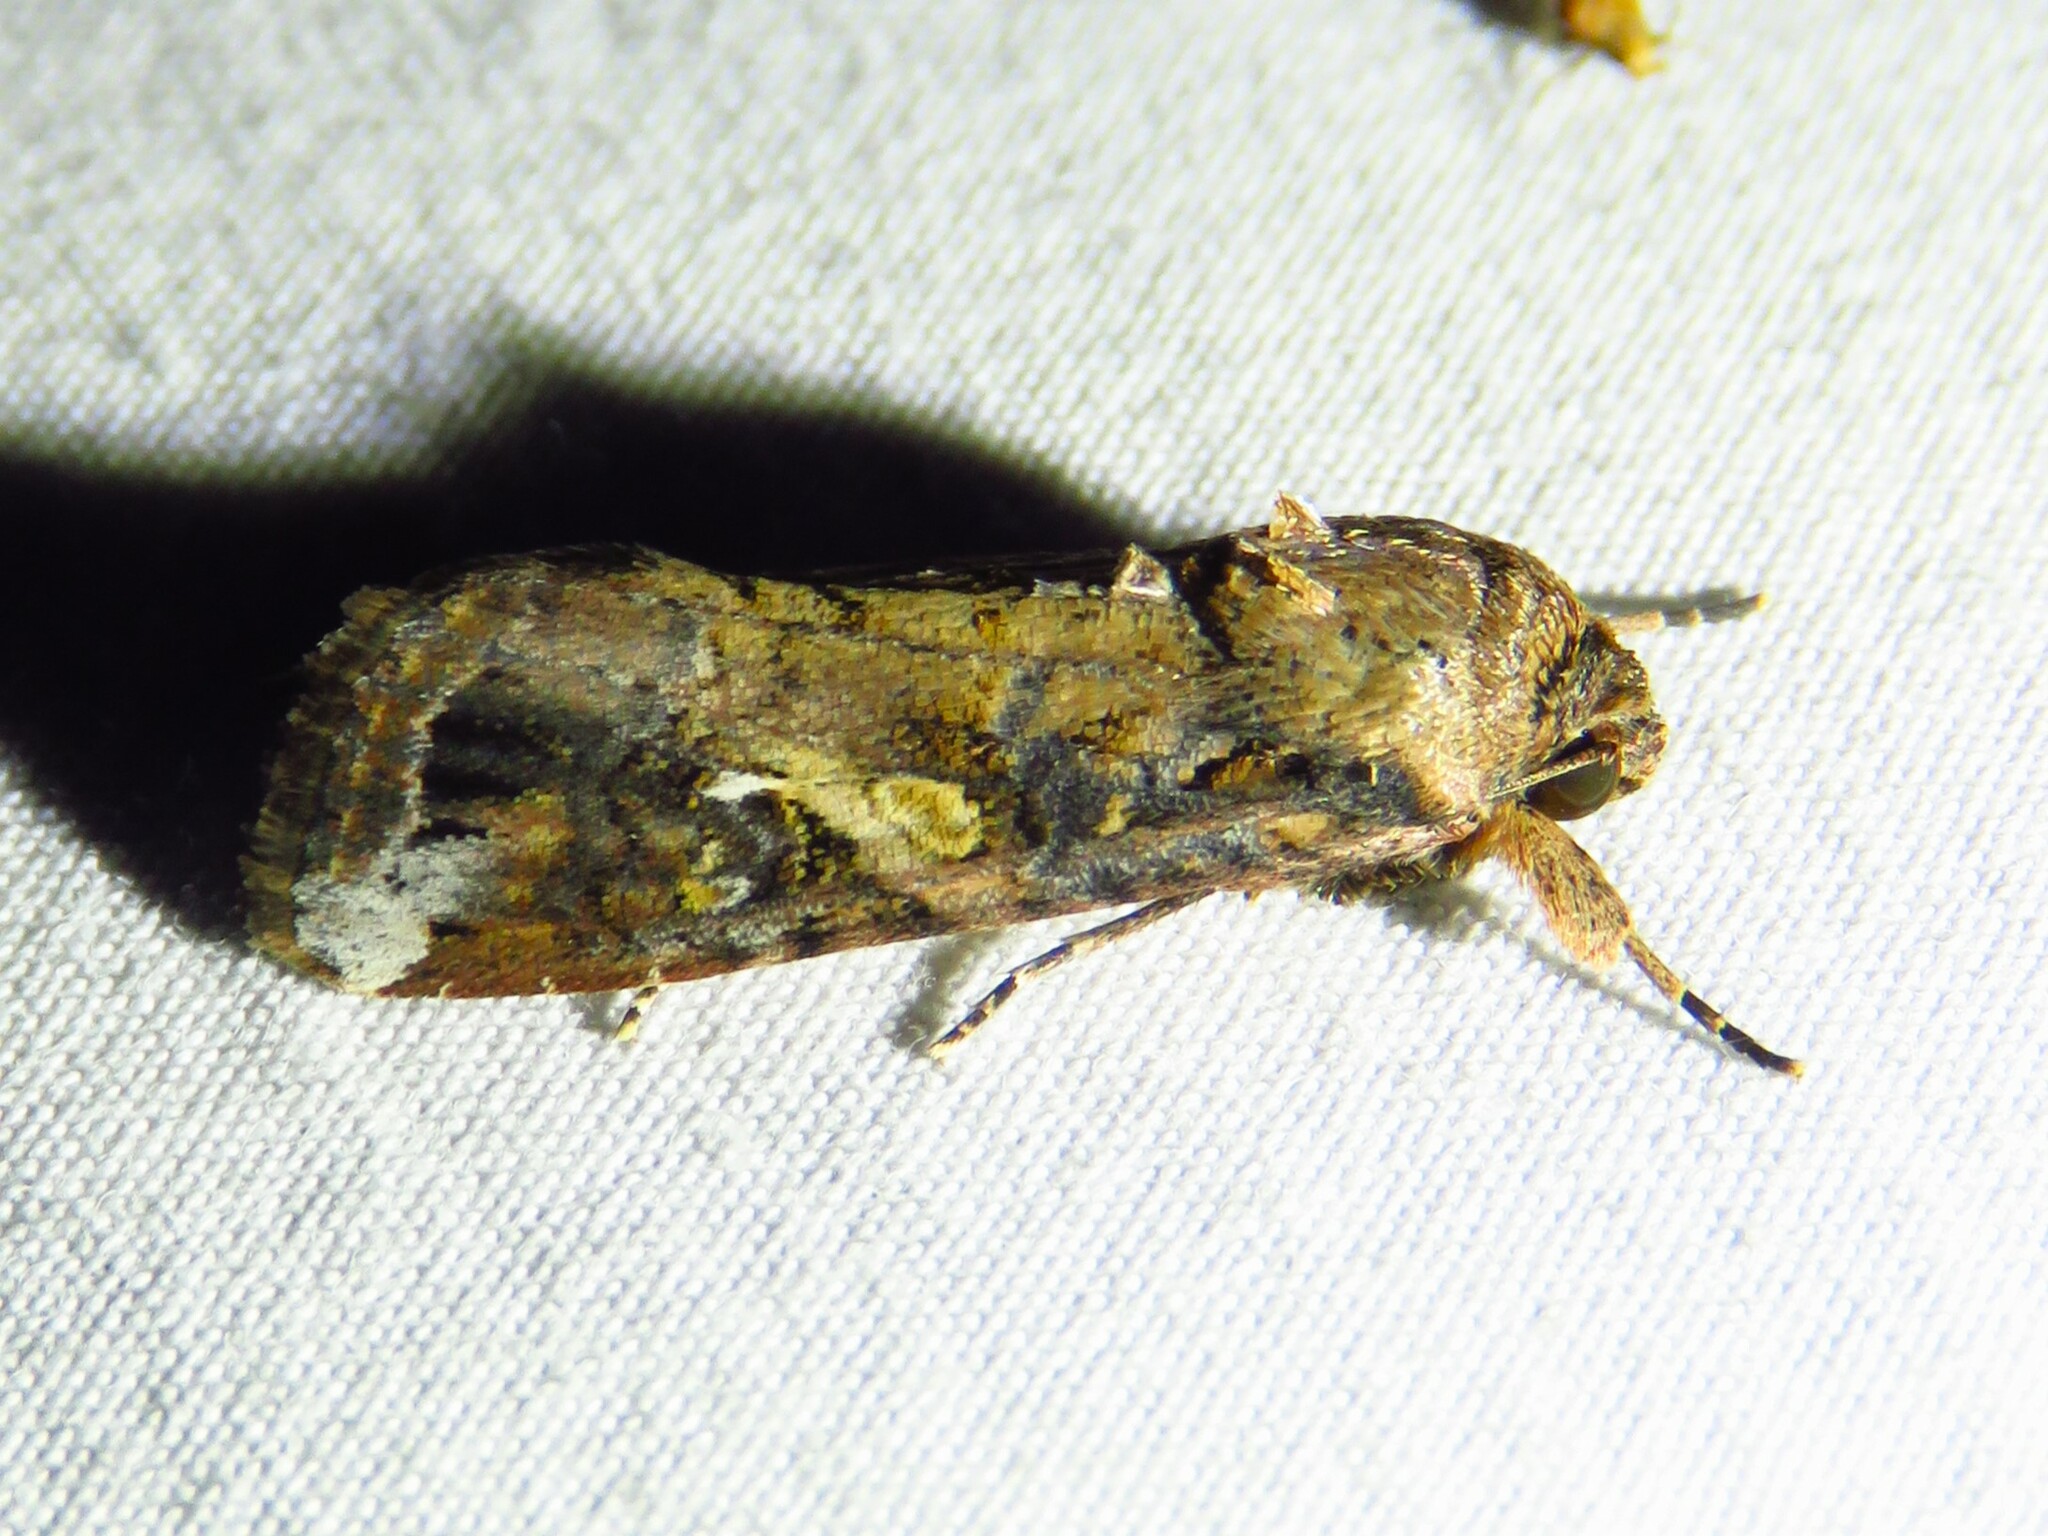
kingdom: Animalia
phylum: Arthropoda
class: Insecta
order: Lepidoptera
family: Noctuidae
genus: Spodoptera
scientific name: Spodoptera frugiperda
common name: Fall armyworm
